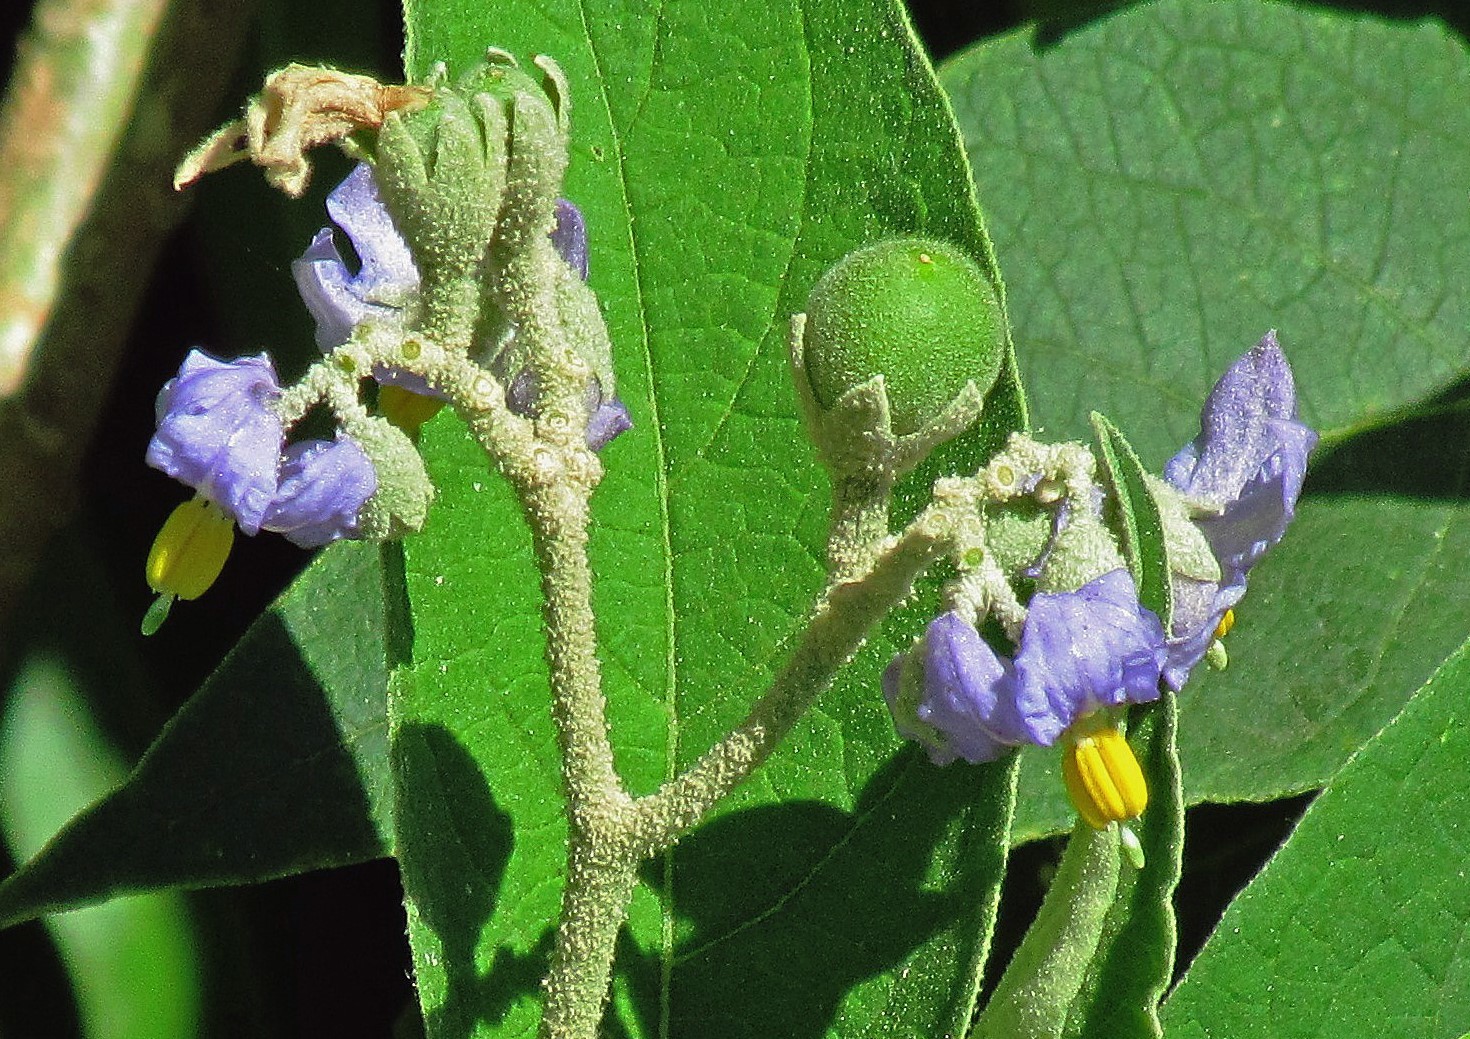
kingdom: Plantae
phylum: Tracheophyta
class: Magnoliopsida
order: Solanales
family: Solanaceae
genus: Solanum
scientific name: Solanum granulosoleprosum
